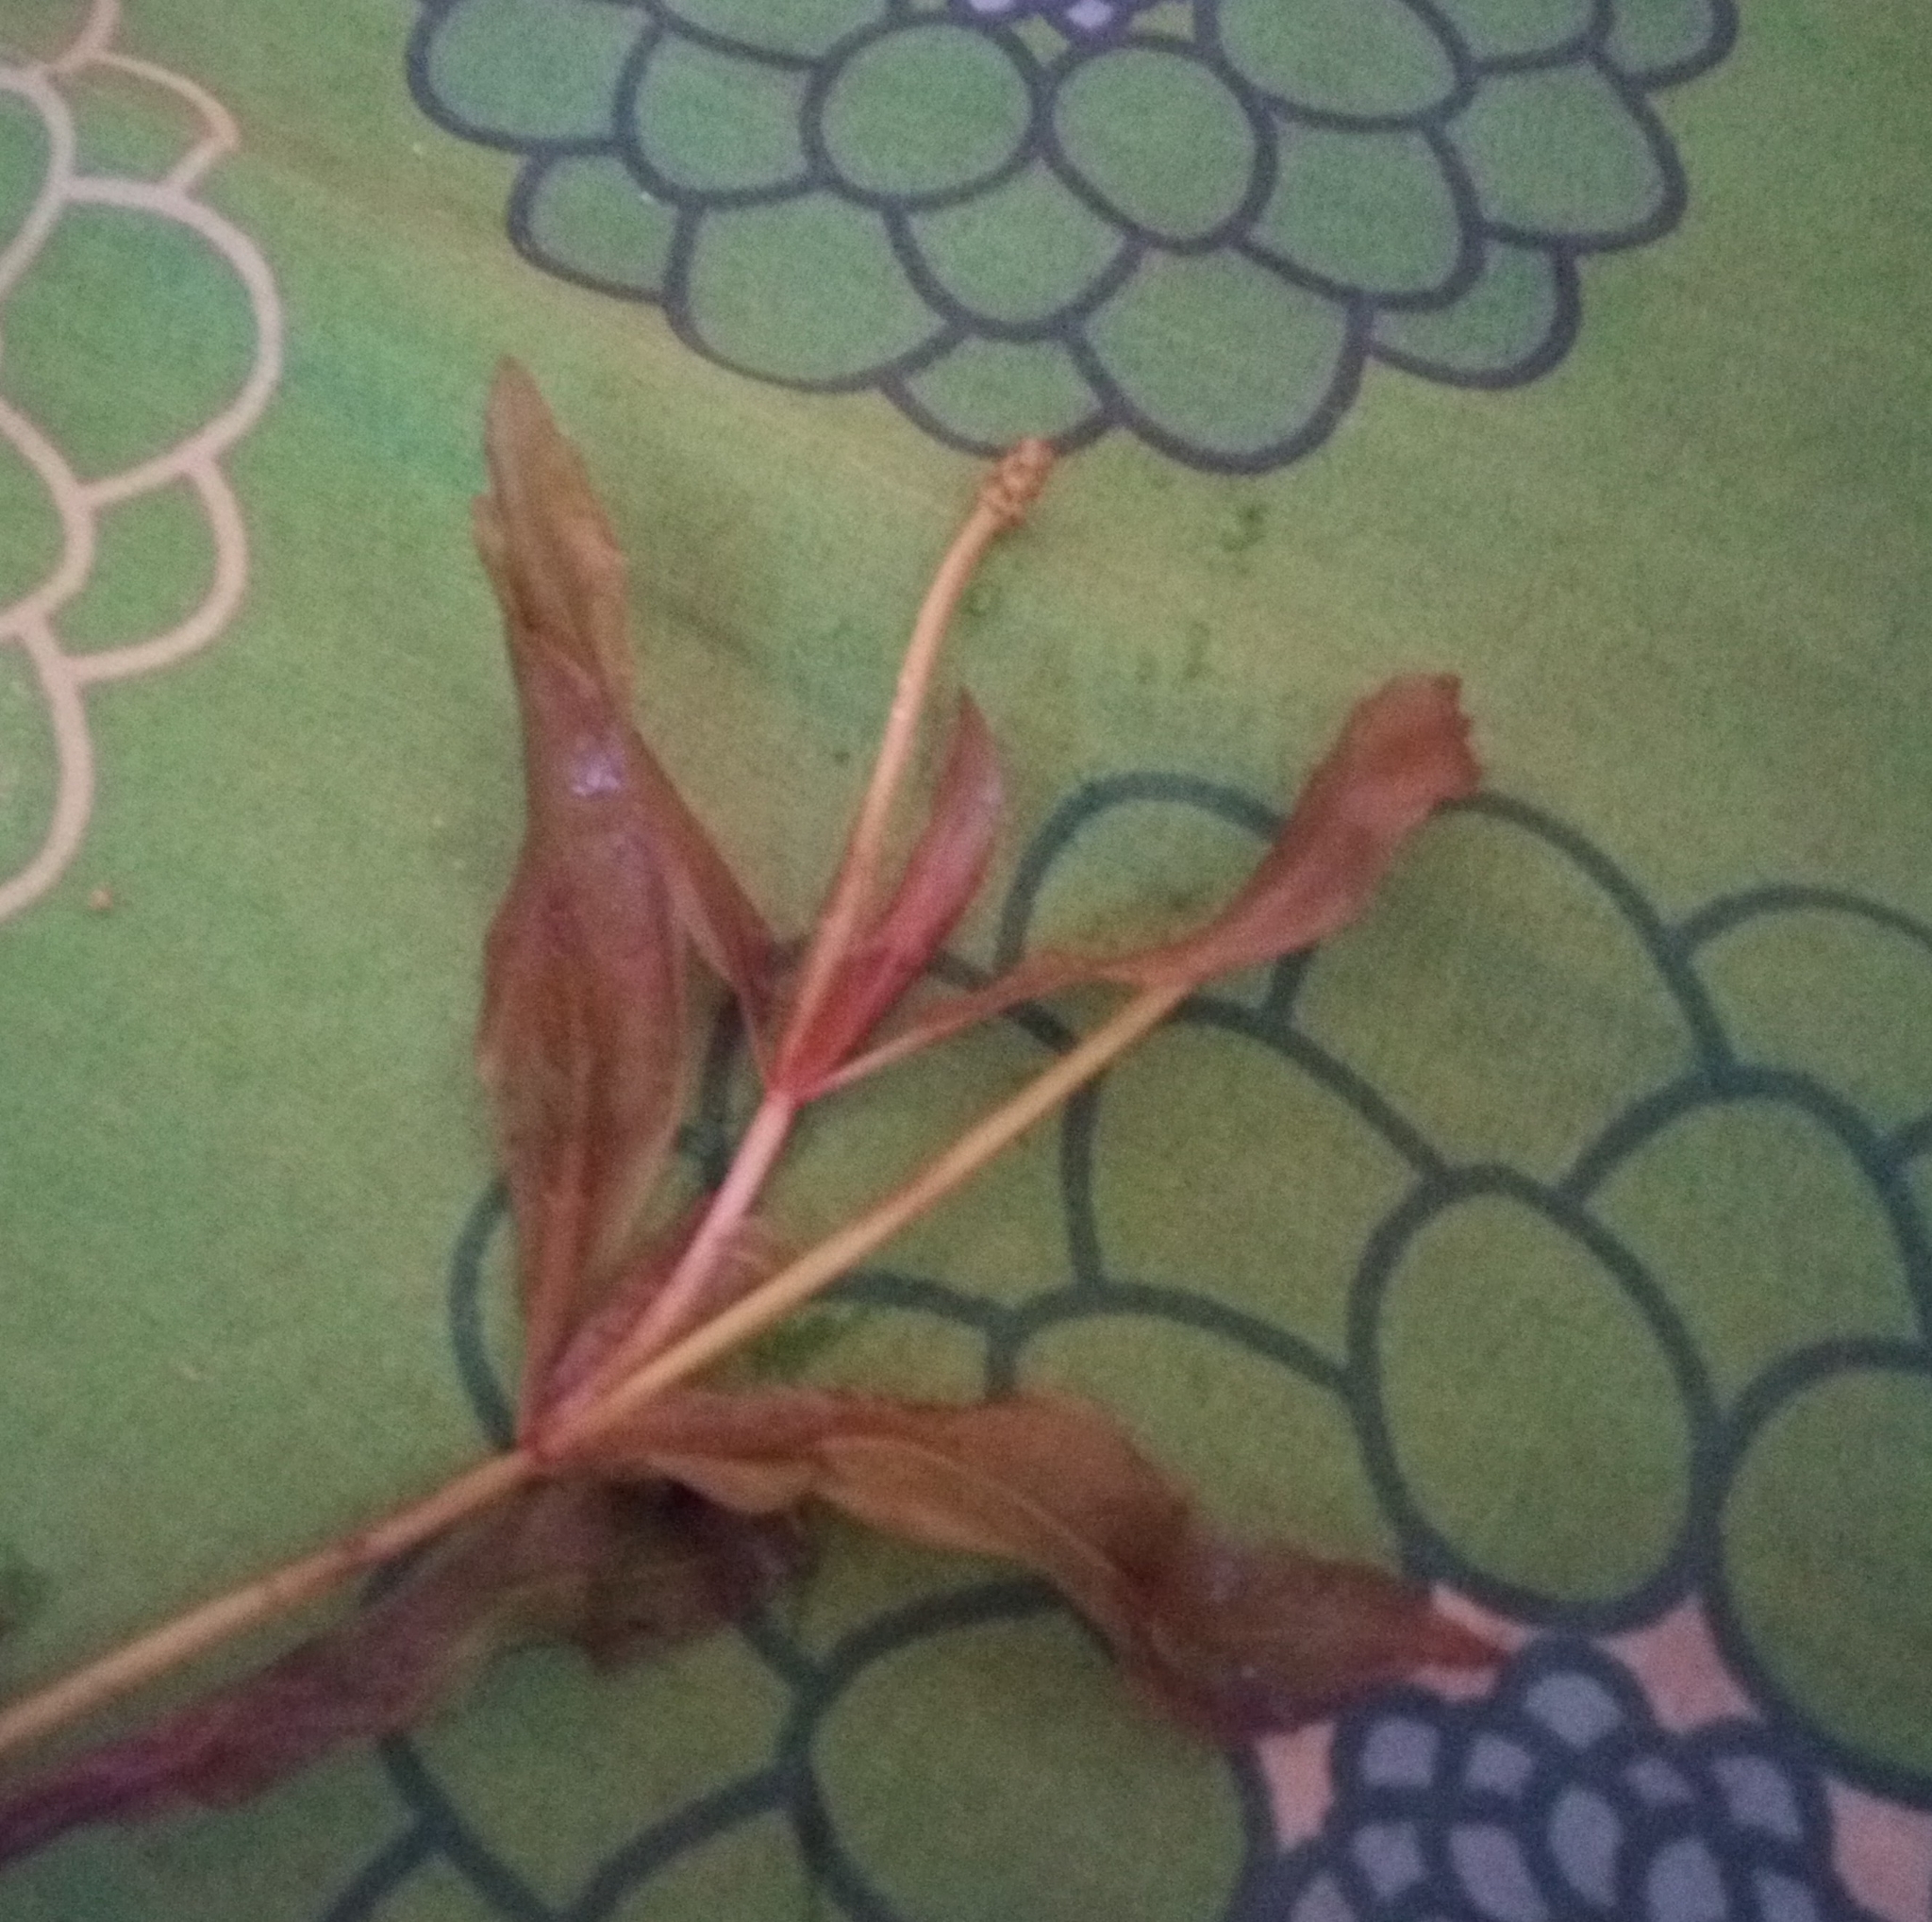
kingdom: Plantae
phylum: Tracheophyta
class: Liliopsida
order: Alismatales
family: Potamogetonaceae
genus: Potamogeton
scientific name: Potamogeton lucens
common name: Shining pondweed
